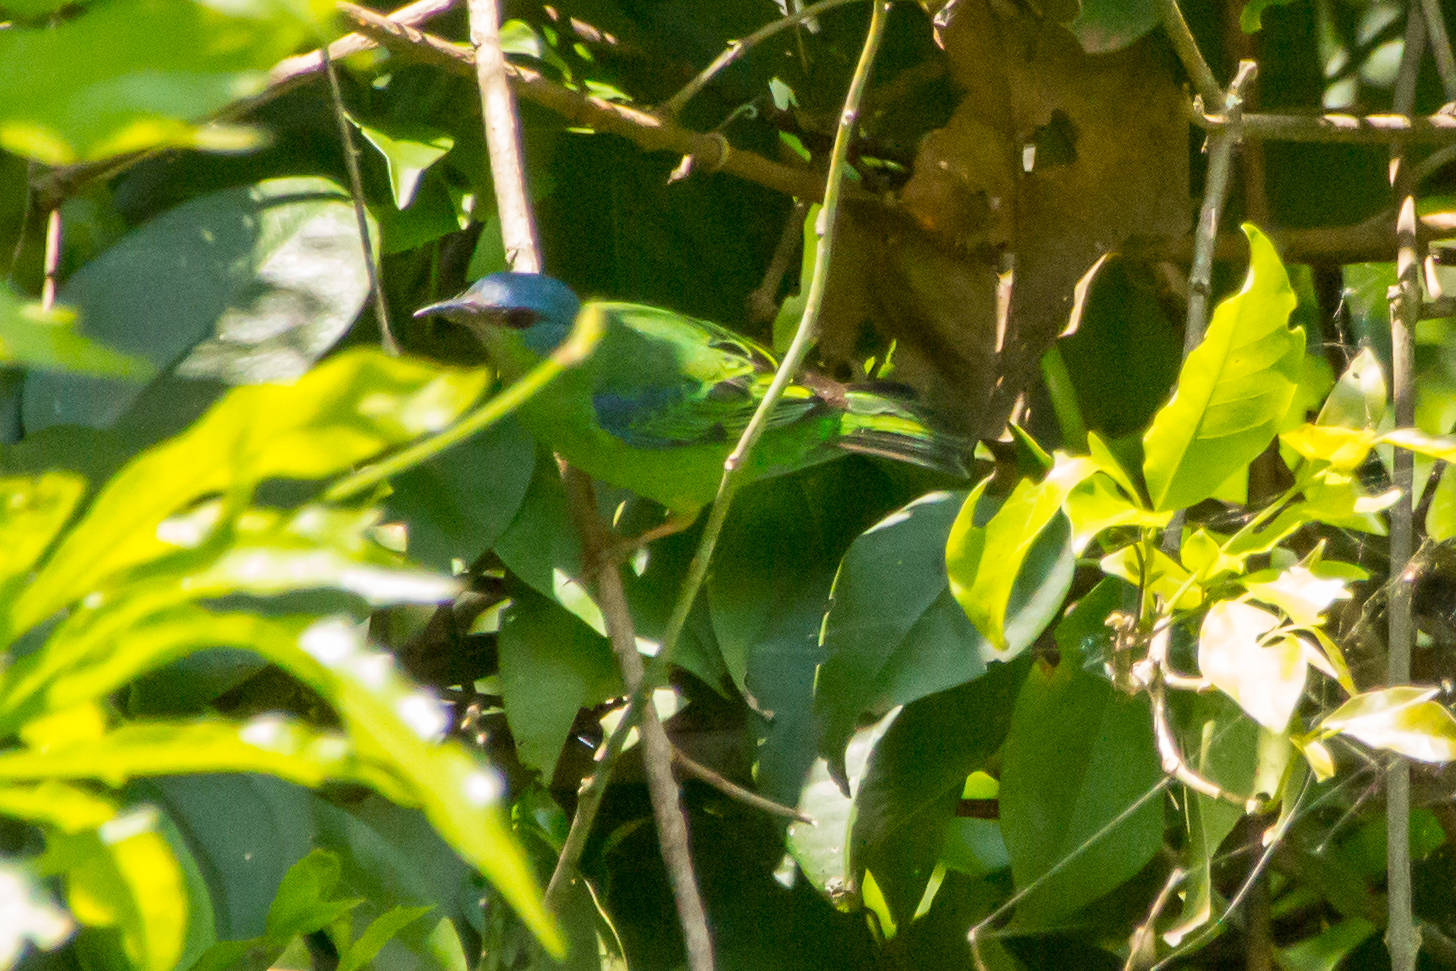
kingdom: Animalia
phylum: Chordata
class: Aves
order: Passeriformes
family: Thraupidae
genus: Dacnis
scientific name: Dacnis cayana
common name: Blue dacnis
